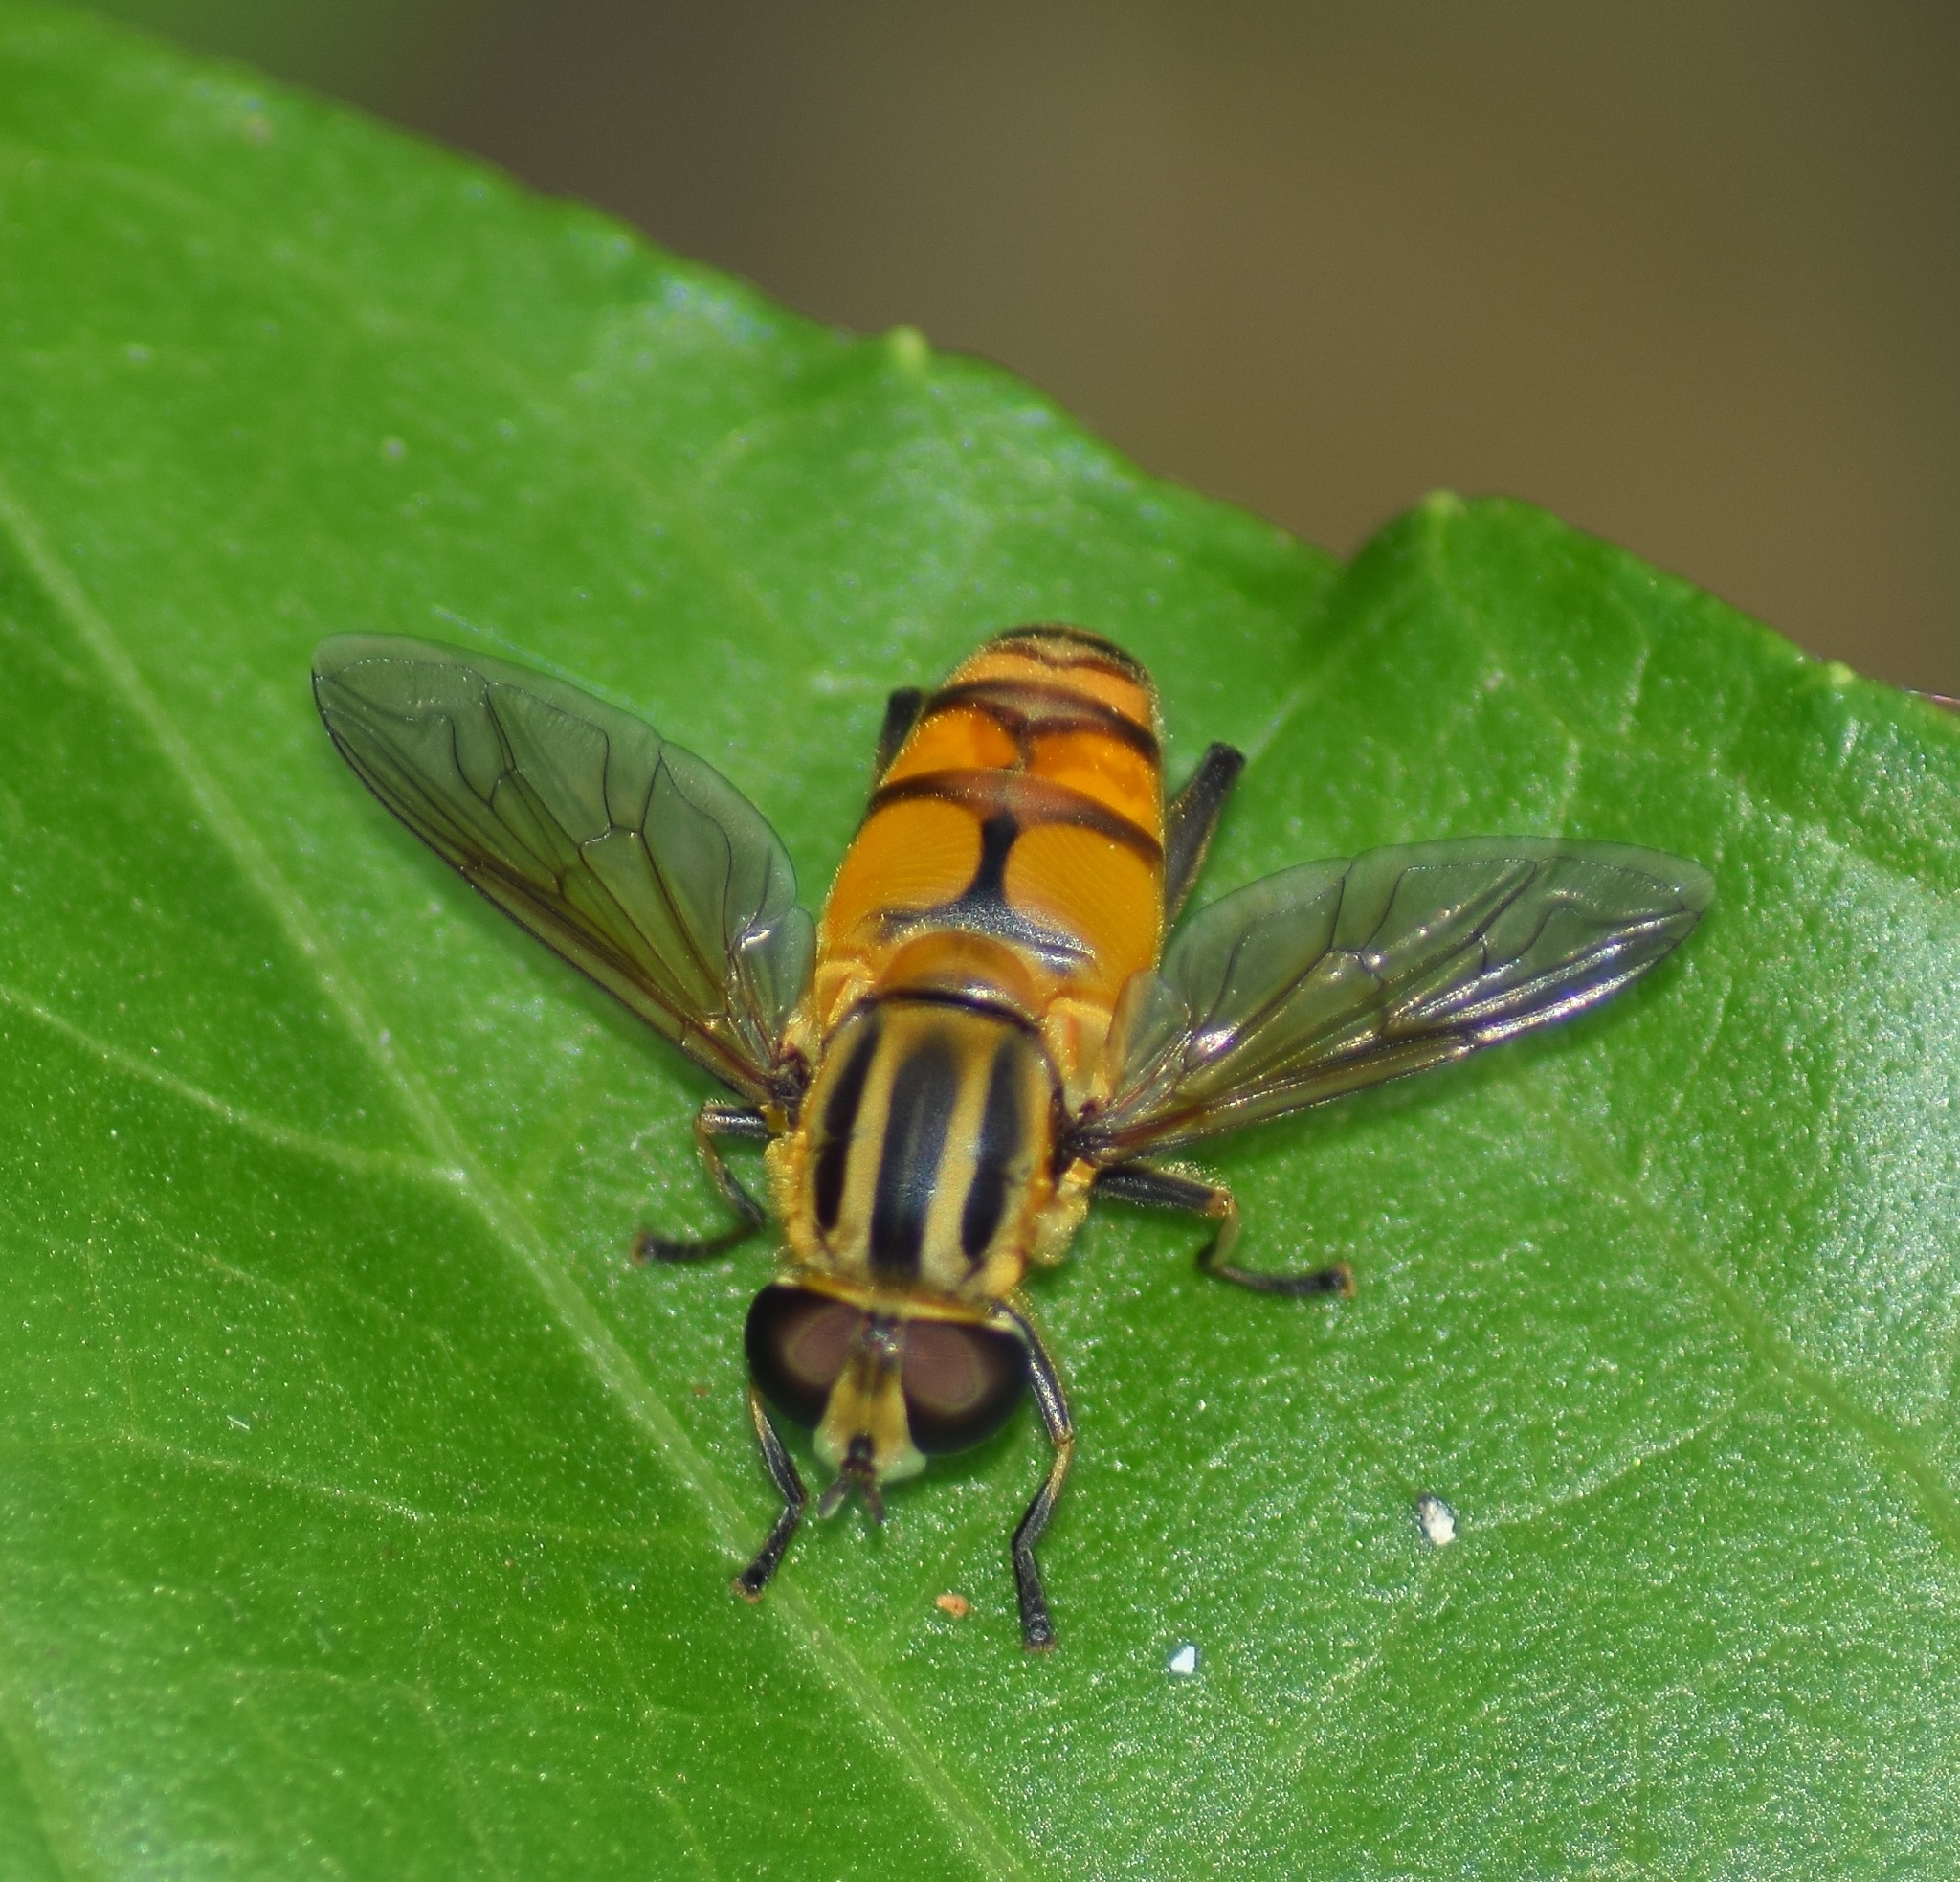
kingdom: Animalia
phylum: Arthropoda
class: Insecta
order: Diptera
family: Syrphidae
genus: Mesembrius
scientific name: Mesembrius bengalensis
